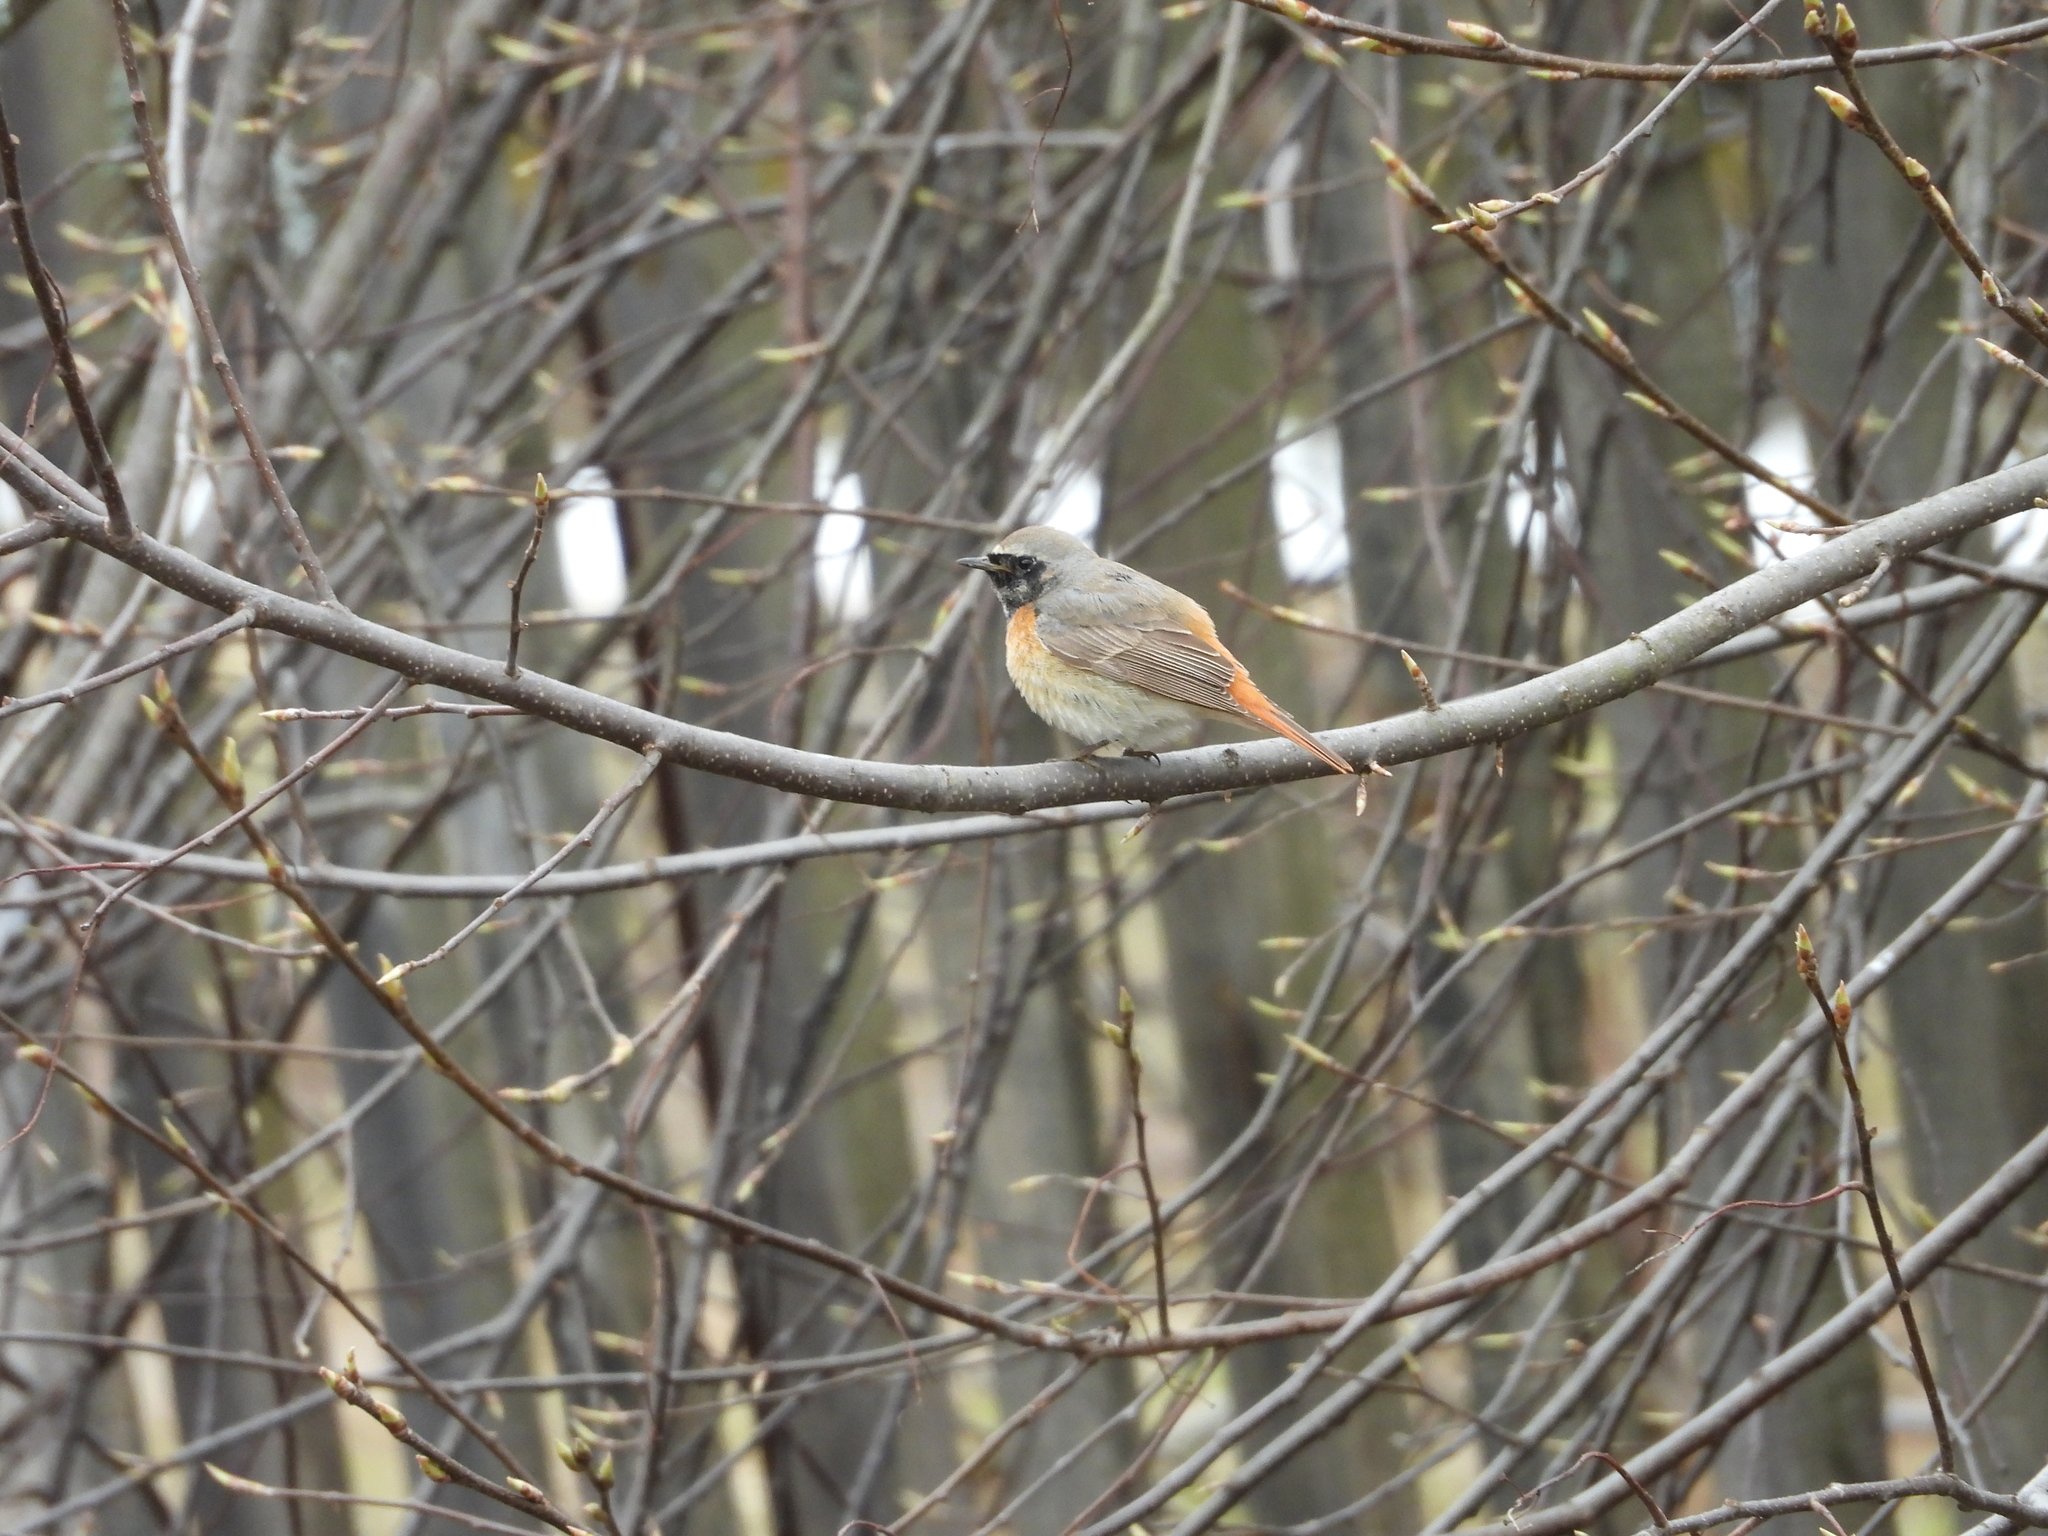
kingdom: Animalia
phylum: Chordata
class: Aves
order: Passeriformes
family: Muscicapidae
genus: Phoenicurus
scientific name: Phoenicurus phoenicurus
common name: Common redstart
